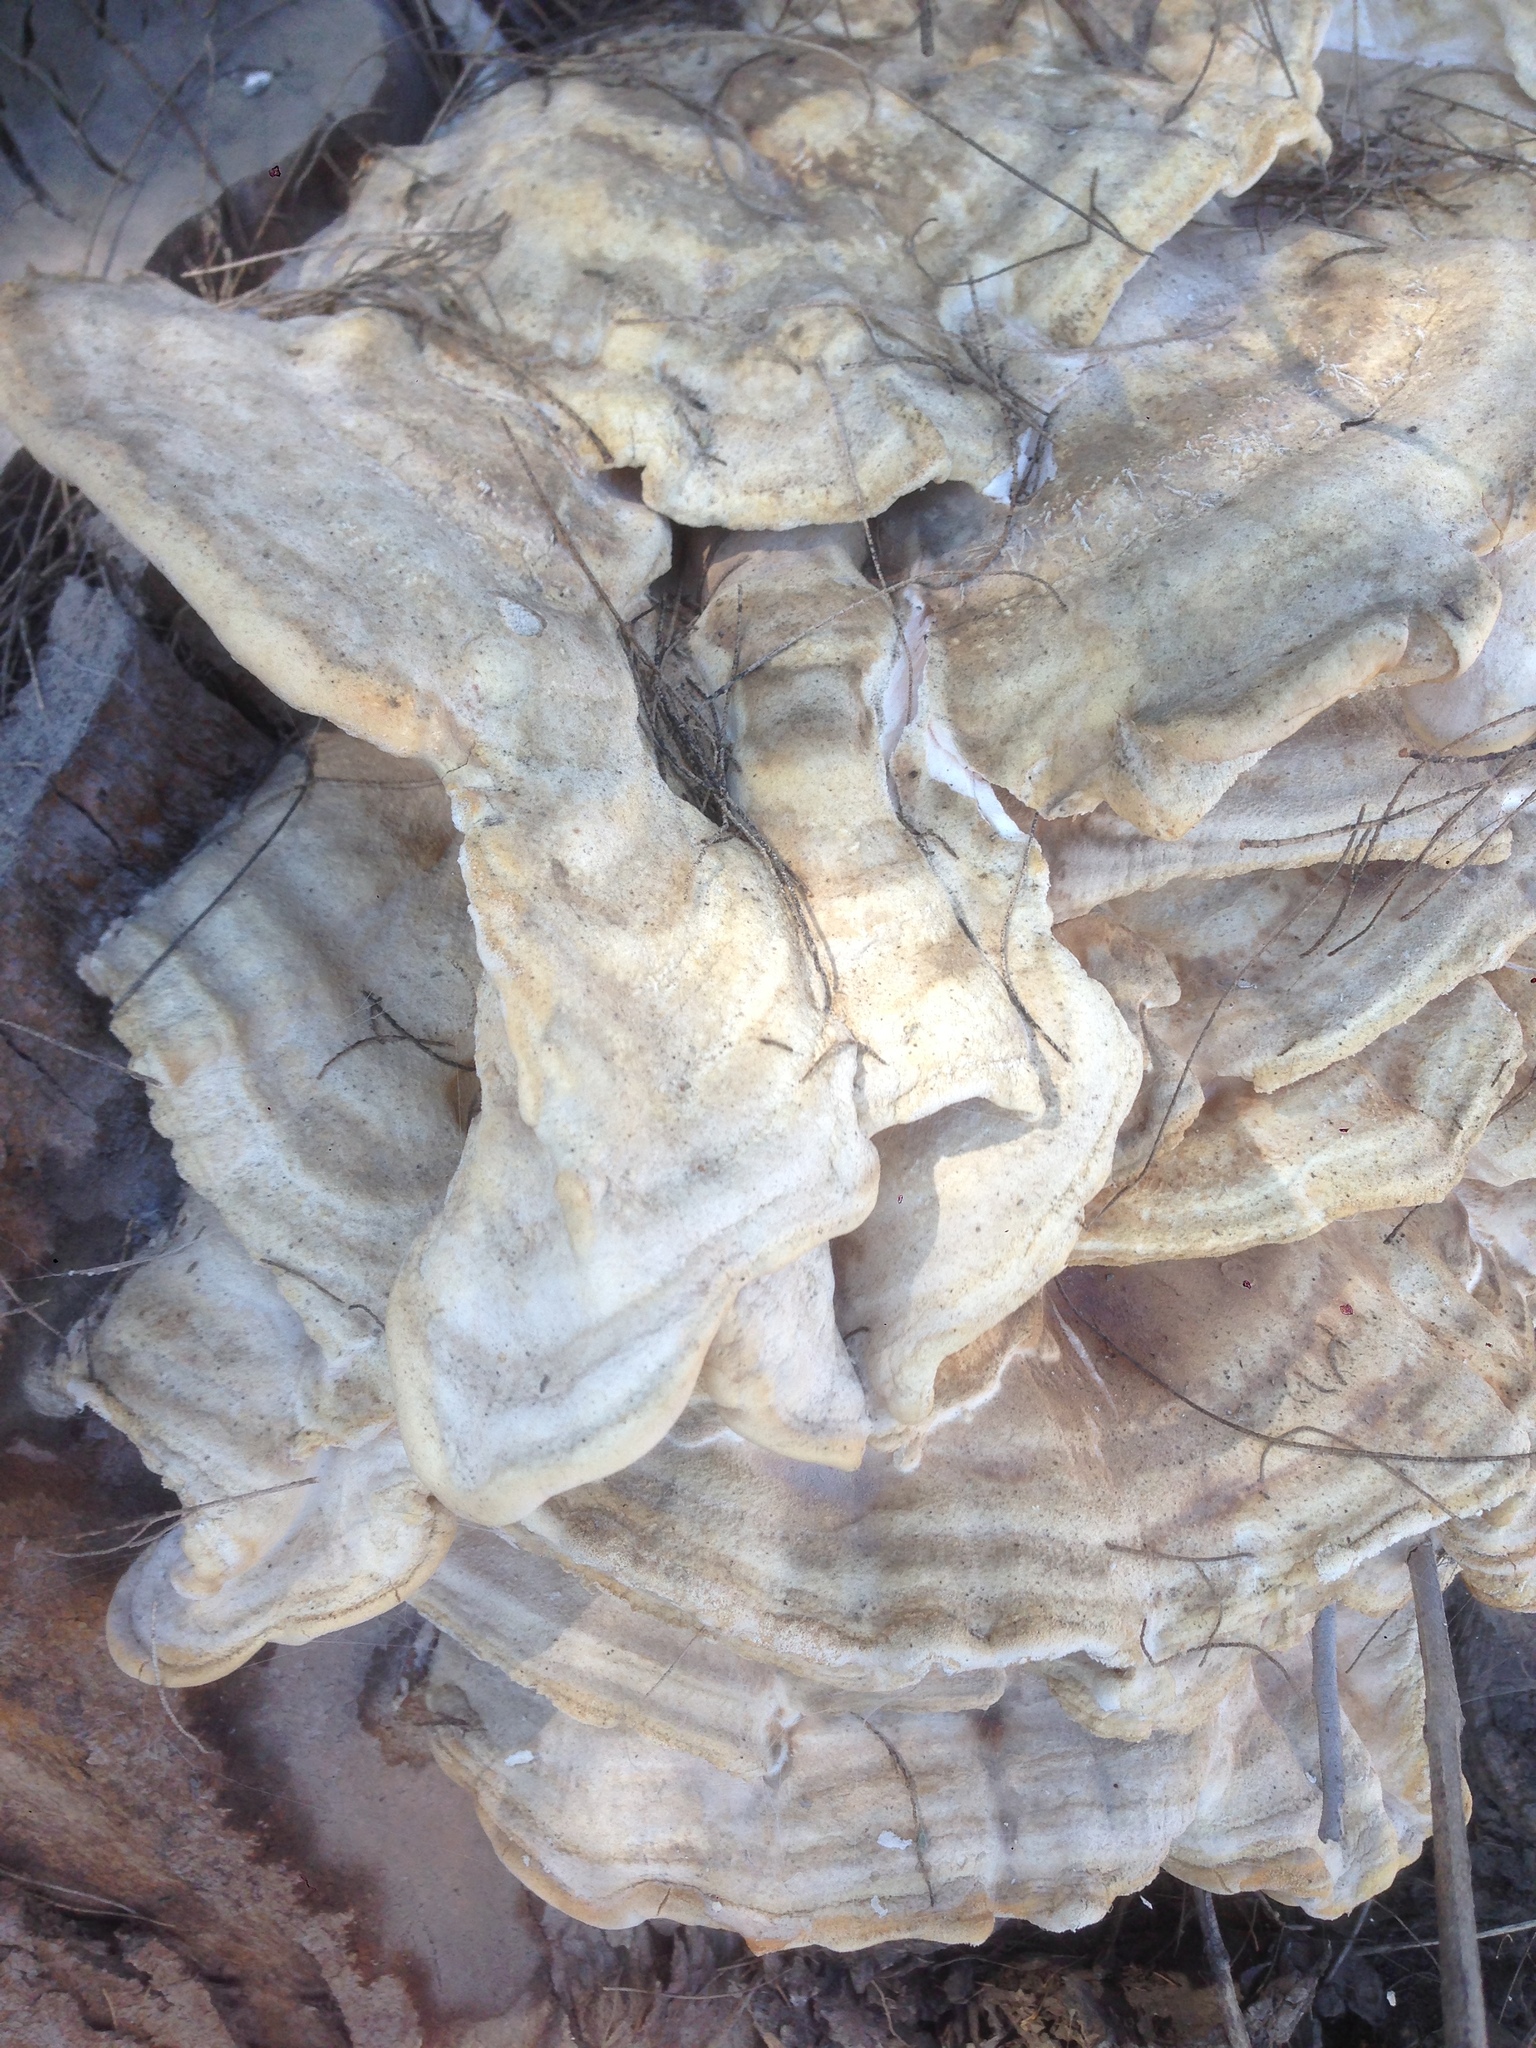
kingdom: Fungi
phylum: Basidiomycota
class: Agaricomycetes
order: Polyporales
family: Laetiporaceae
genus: Laetiporus
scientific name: Laetiporus gilbertsonii
